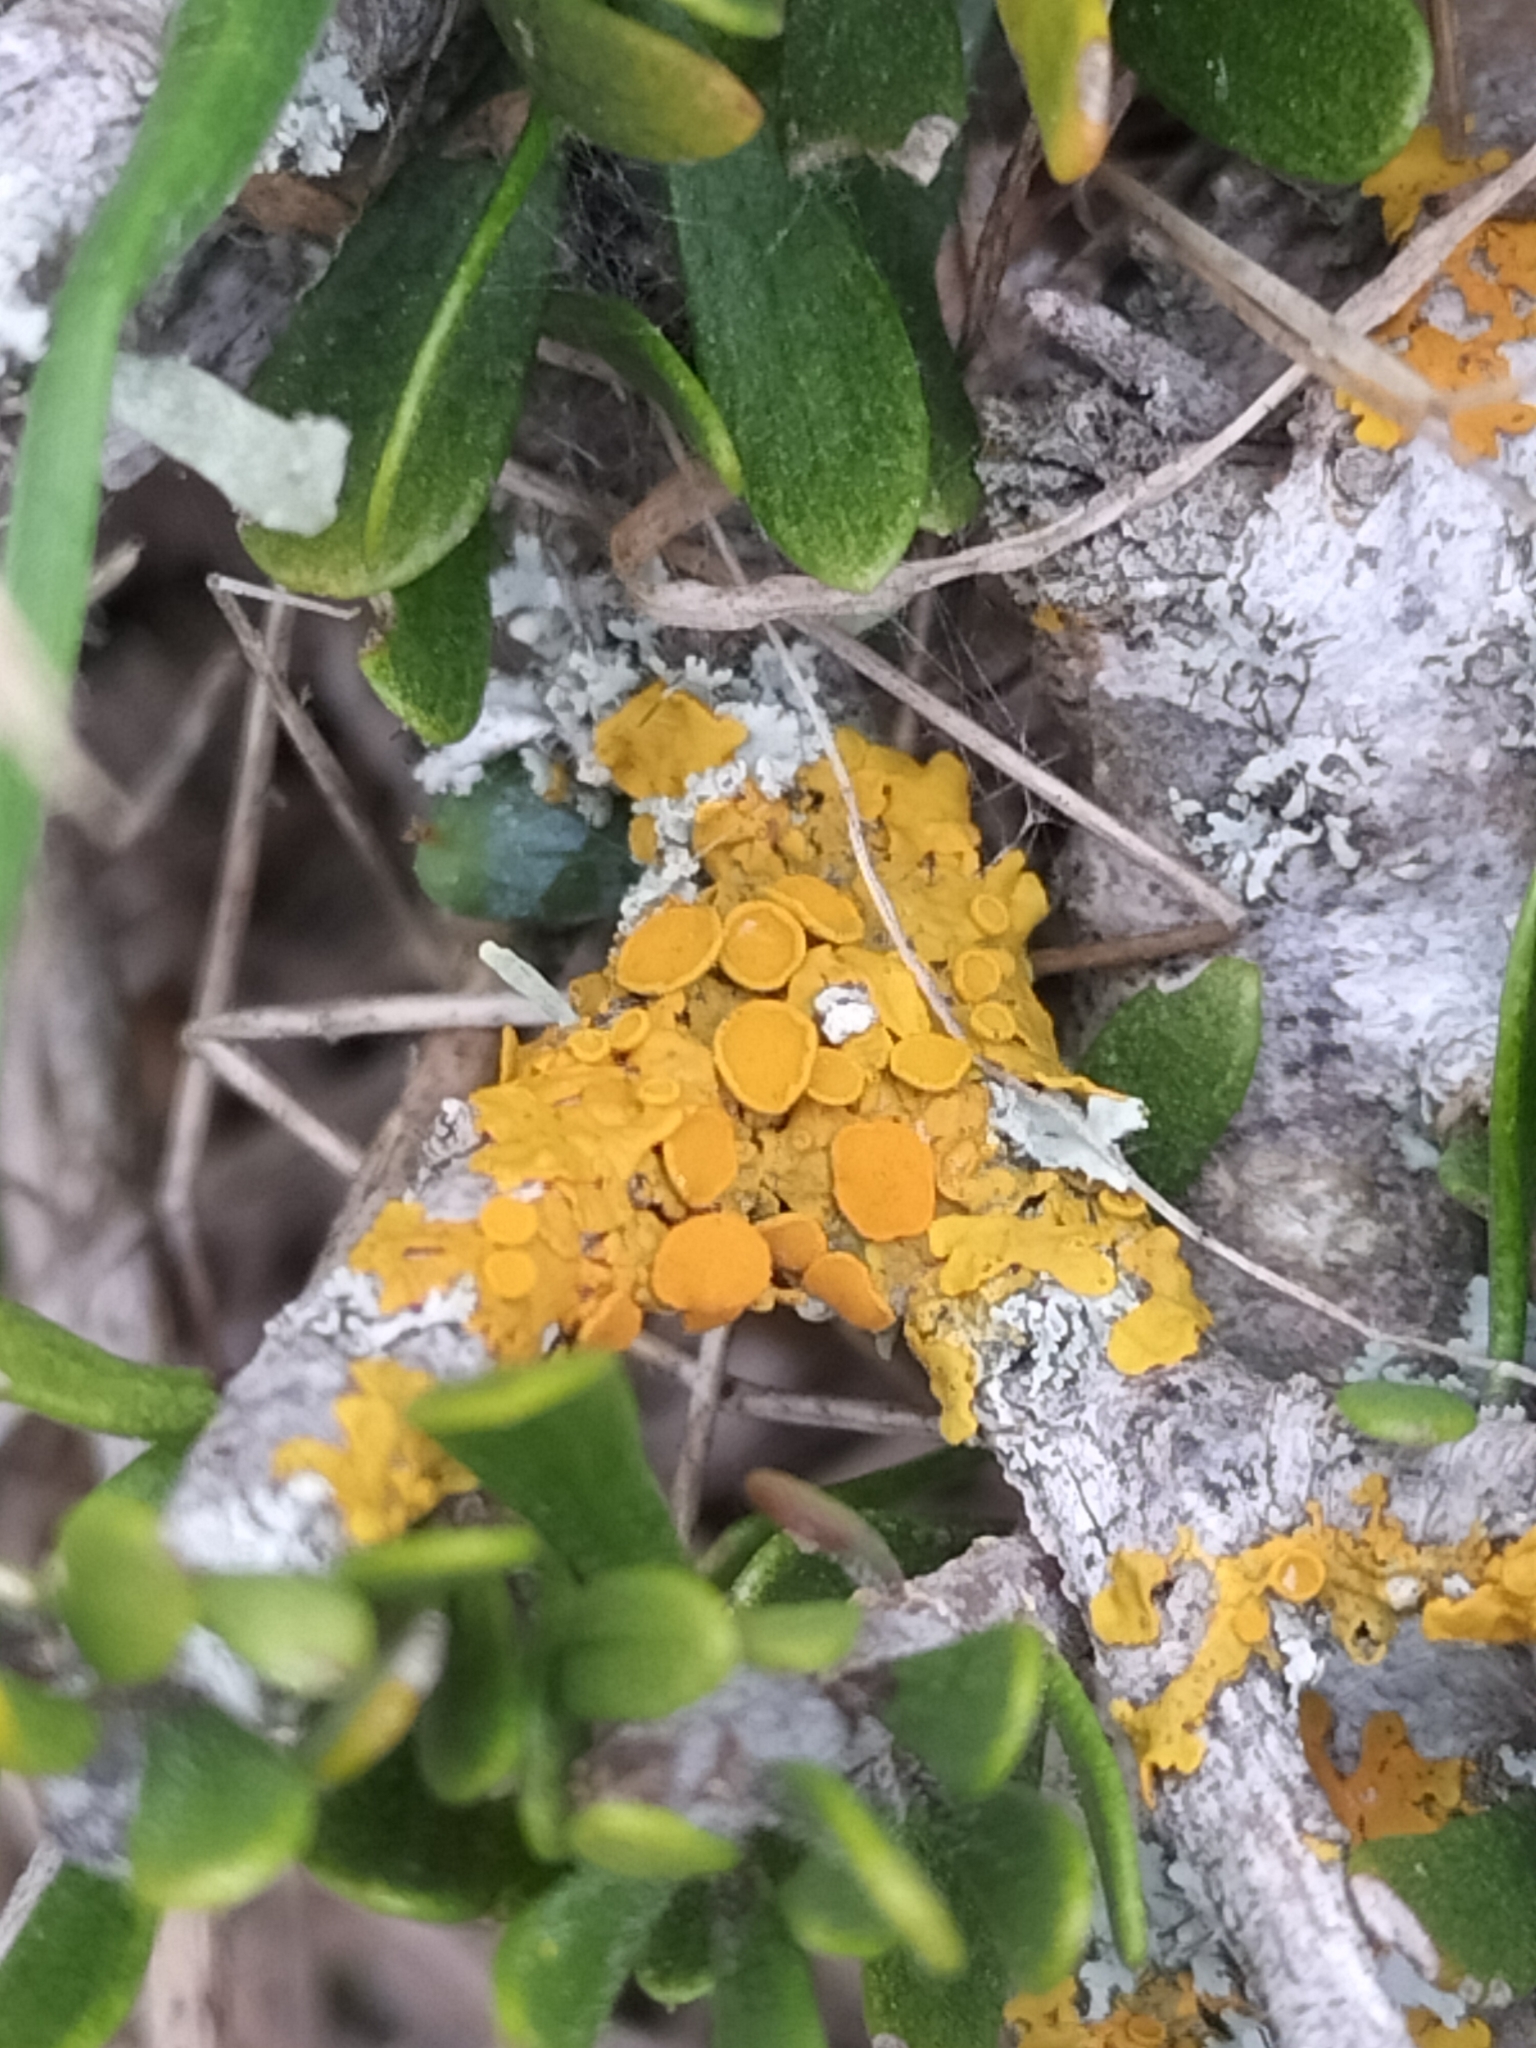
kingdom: Fungi
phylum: Ascomycota
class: Lecanoromycetes
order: Teloschistales
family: Teloschistaceae
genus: Xanthoria
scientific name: Xanthoria parietina
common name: Common orange lichen
